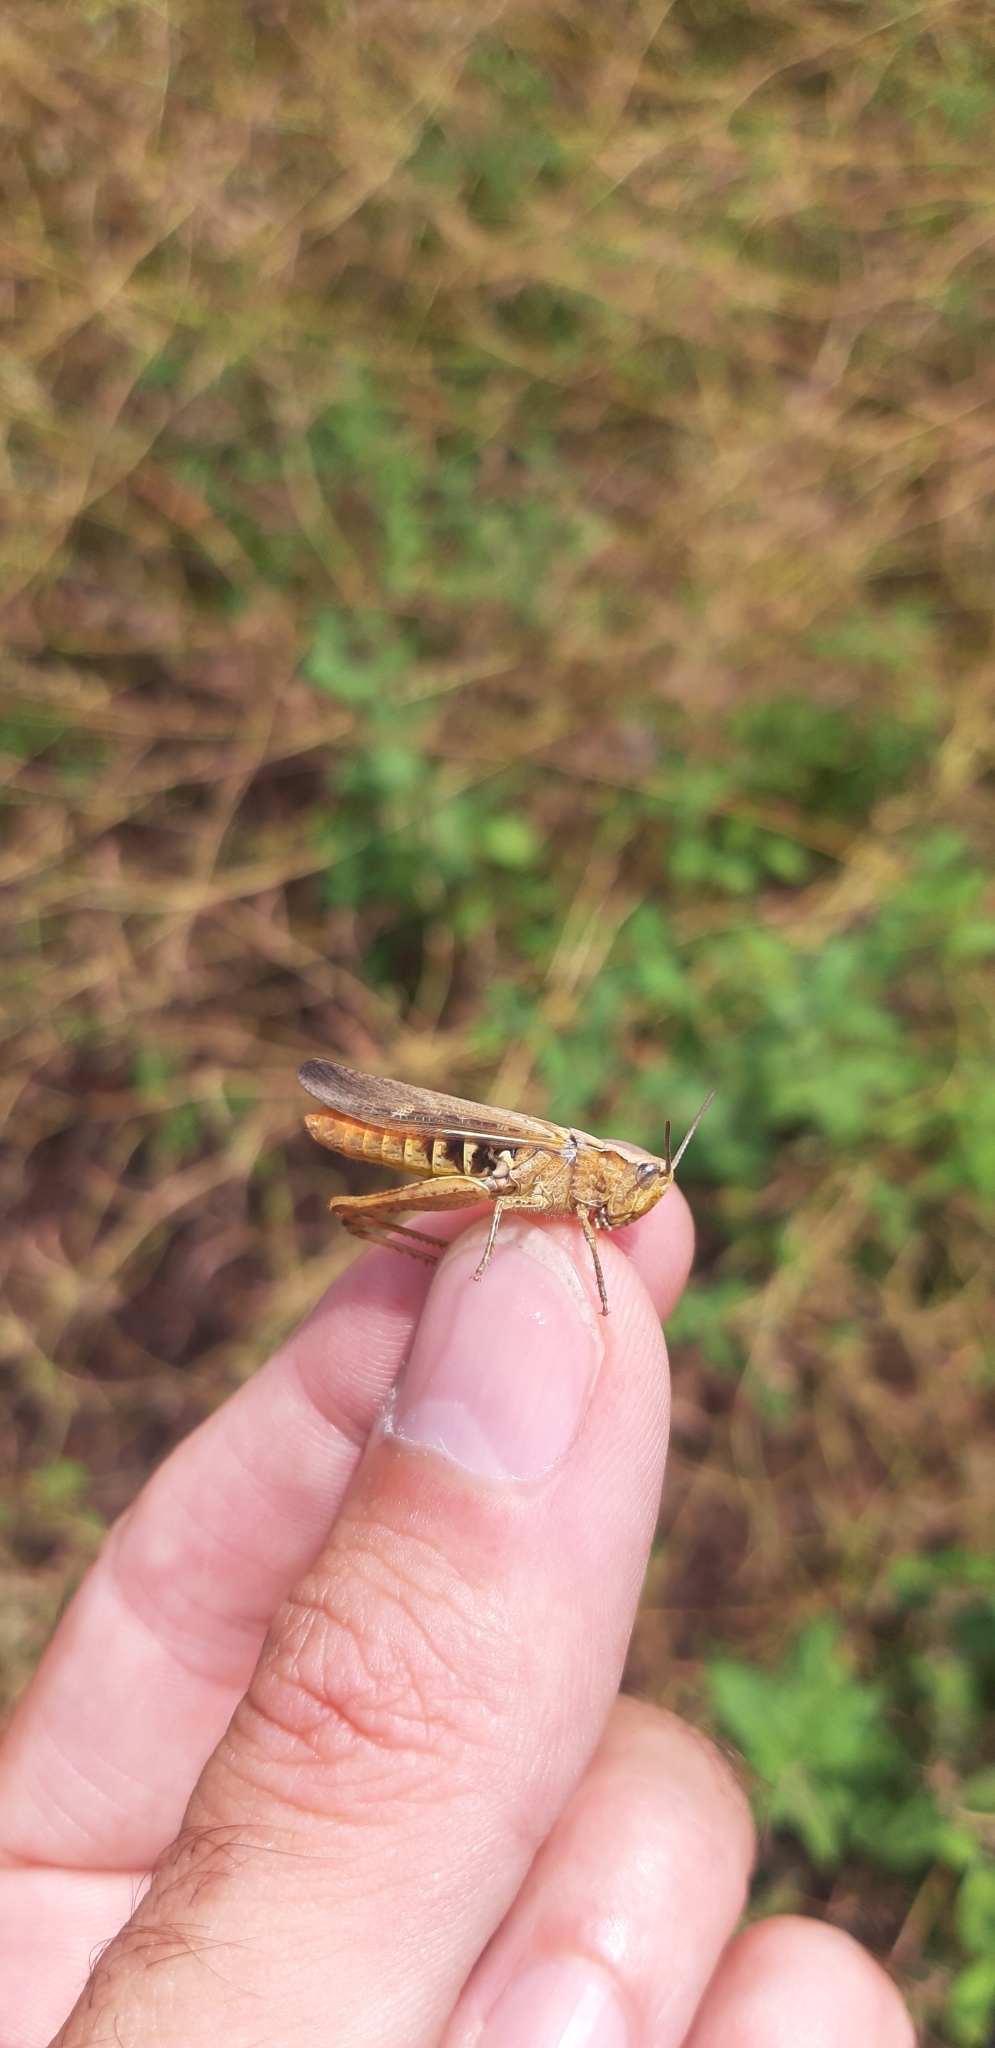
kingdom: Animalia
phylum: Arthropoda
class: Insecta
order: Orthoptera
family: Acrididae
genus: Chorthippus
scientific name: Chorthippus brunneus
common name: Field grasshopper
